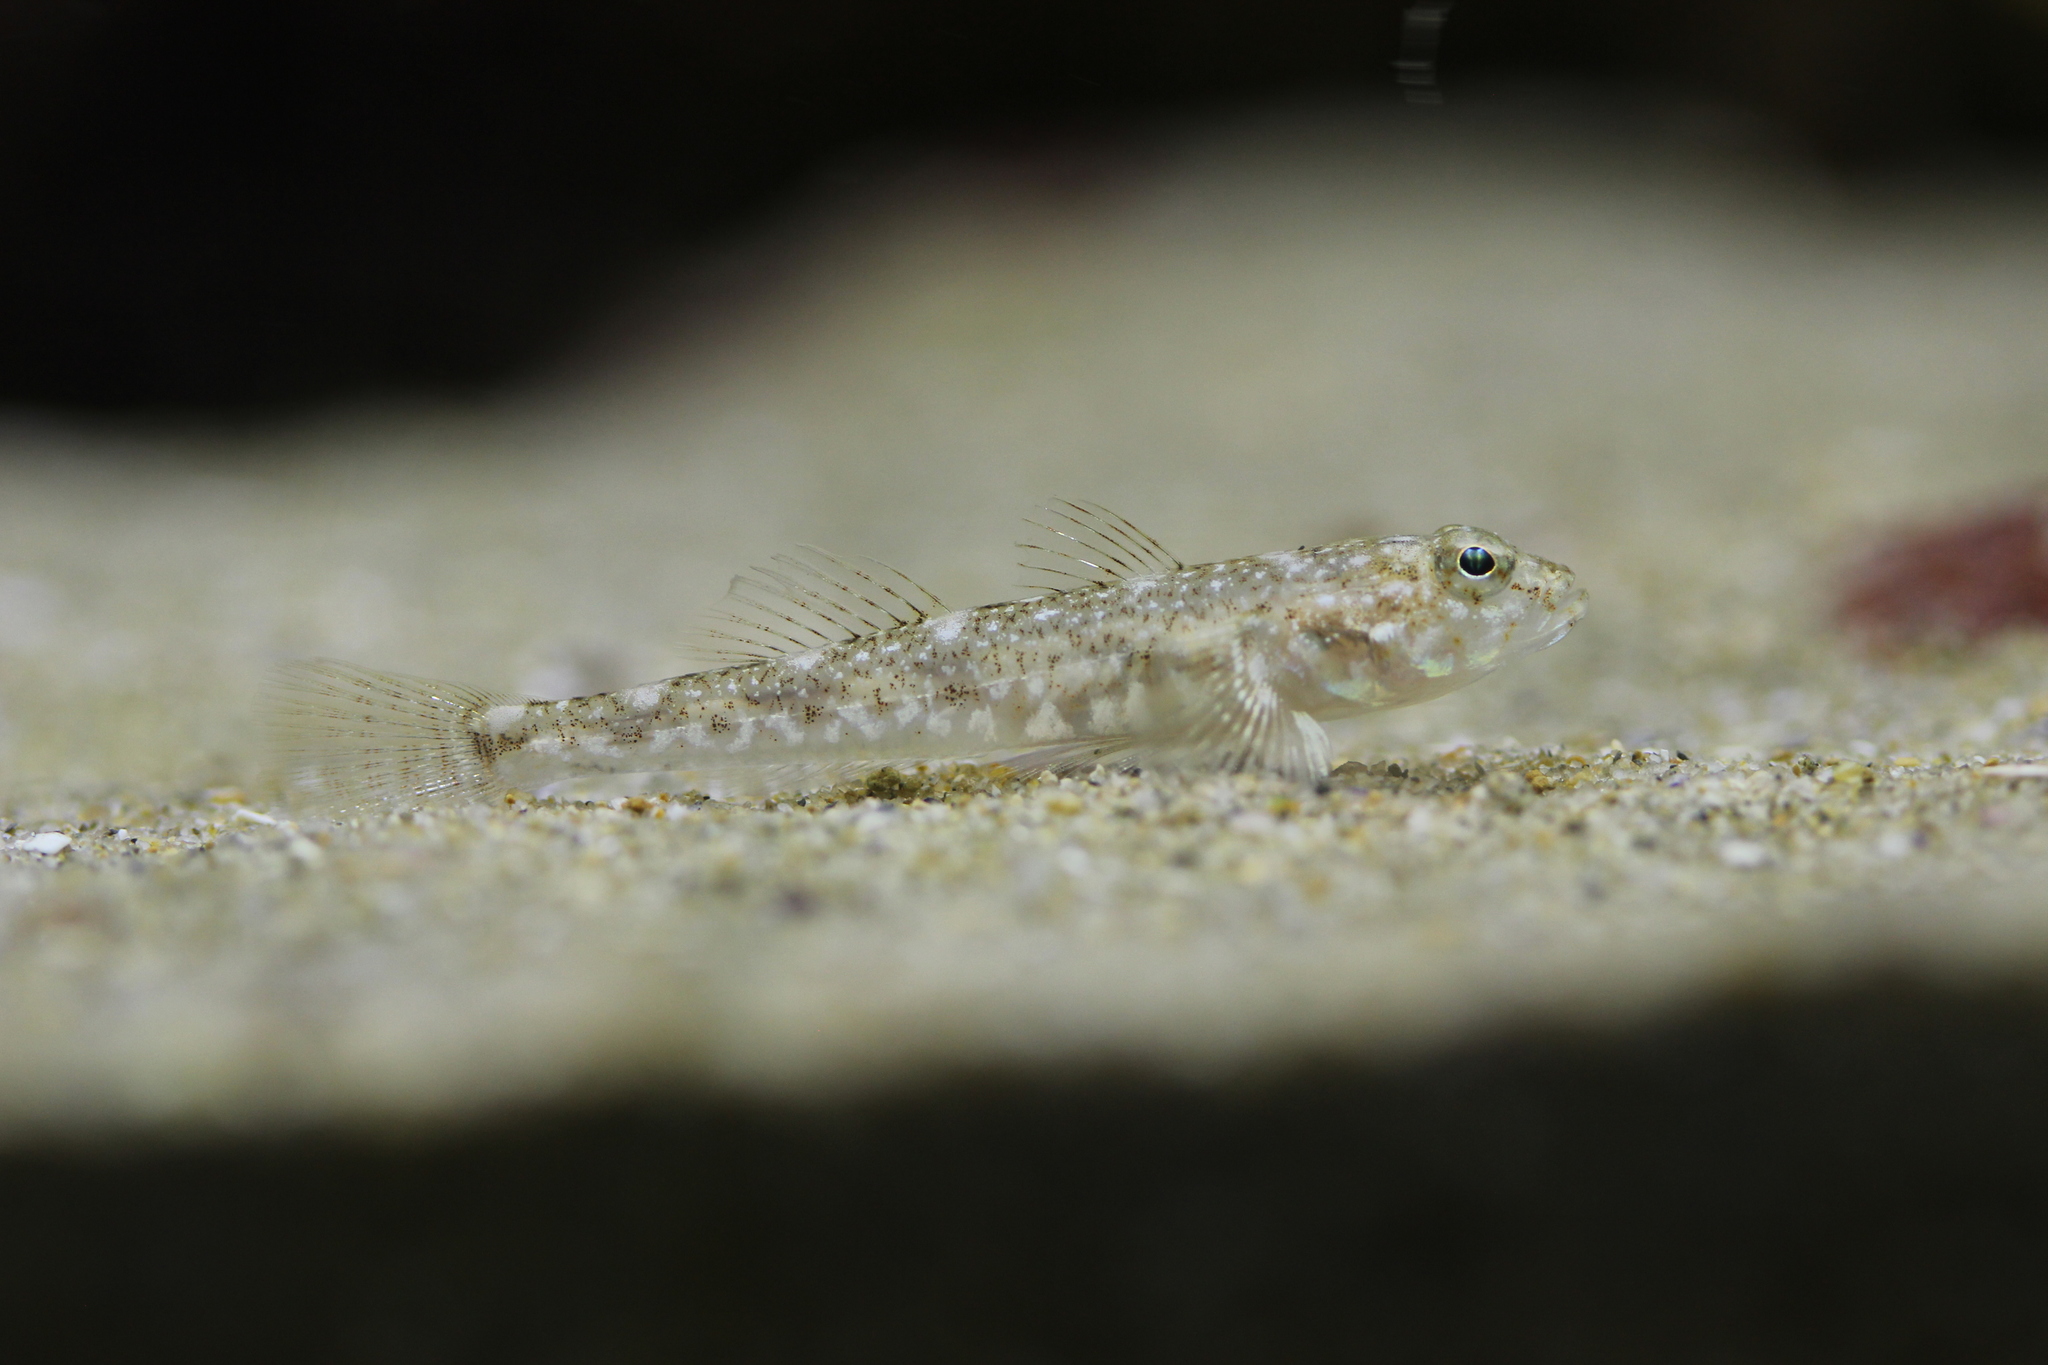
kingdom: Animalia
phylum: Chordata
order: Perciformes
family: Gobiidae
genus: Pomatoschistus
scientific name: Pomatoschistus marmoratus
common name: Marbled goby
